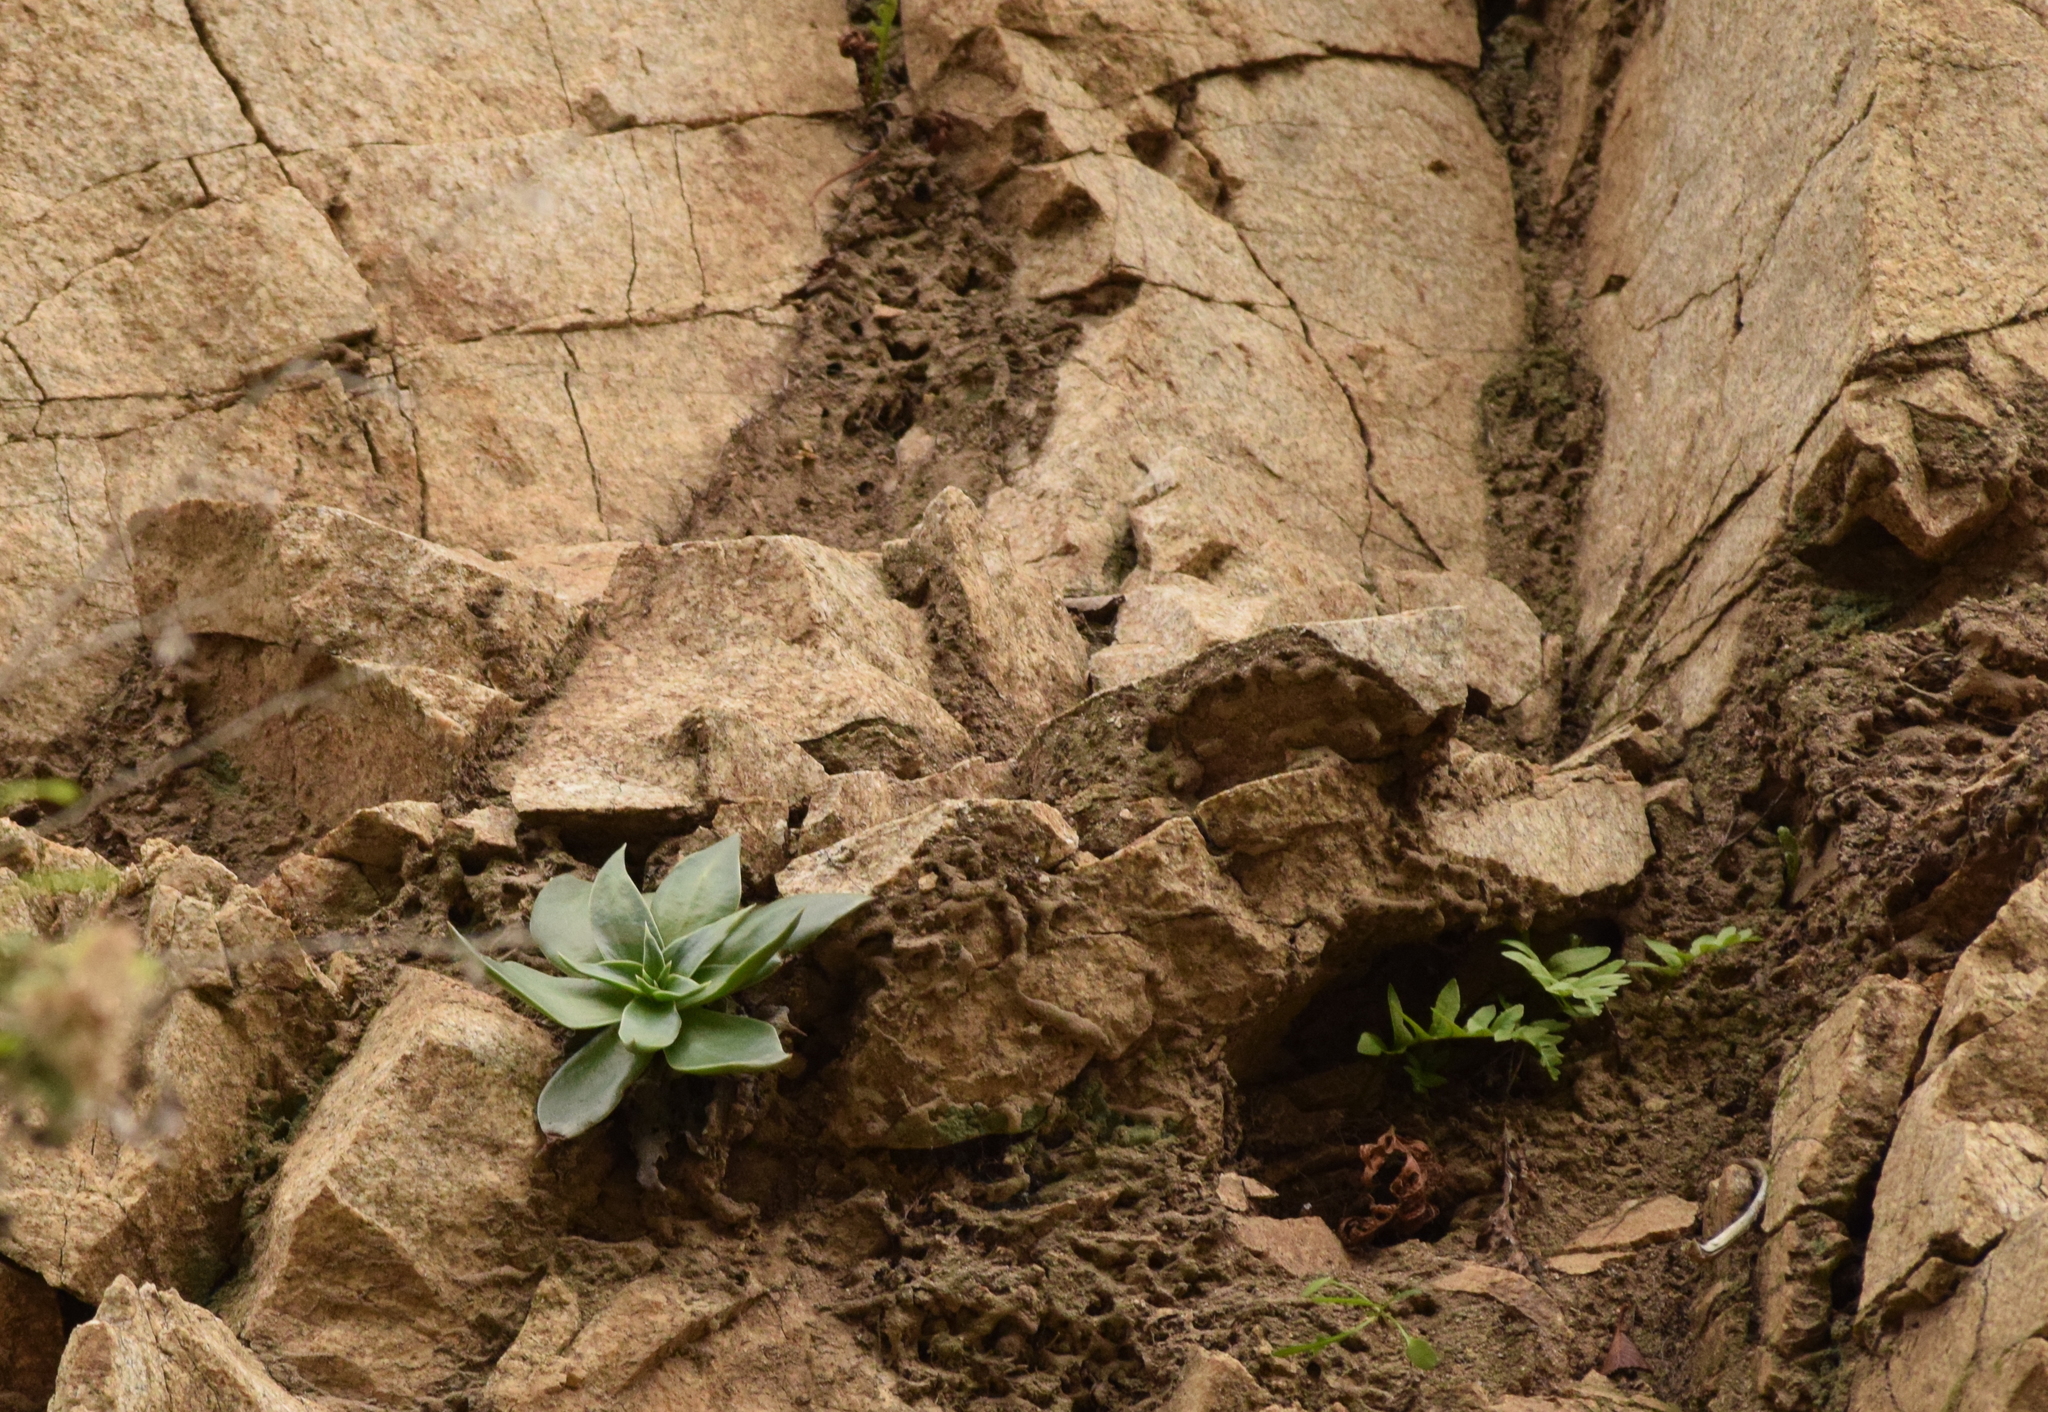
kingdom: Plantae
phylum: Tracheophyta
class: Magnoliopsida
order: Saxifragales
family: Crassulaceae
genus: Dudleya
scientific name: Dudleya lanceolata
